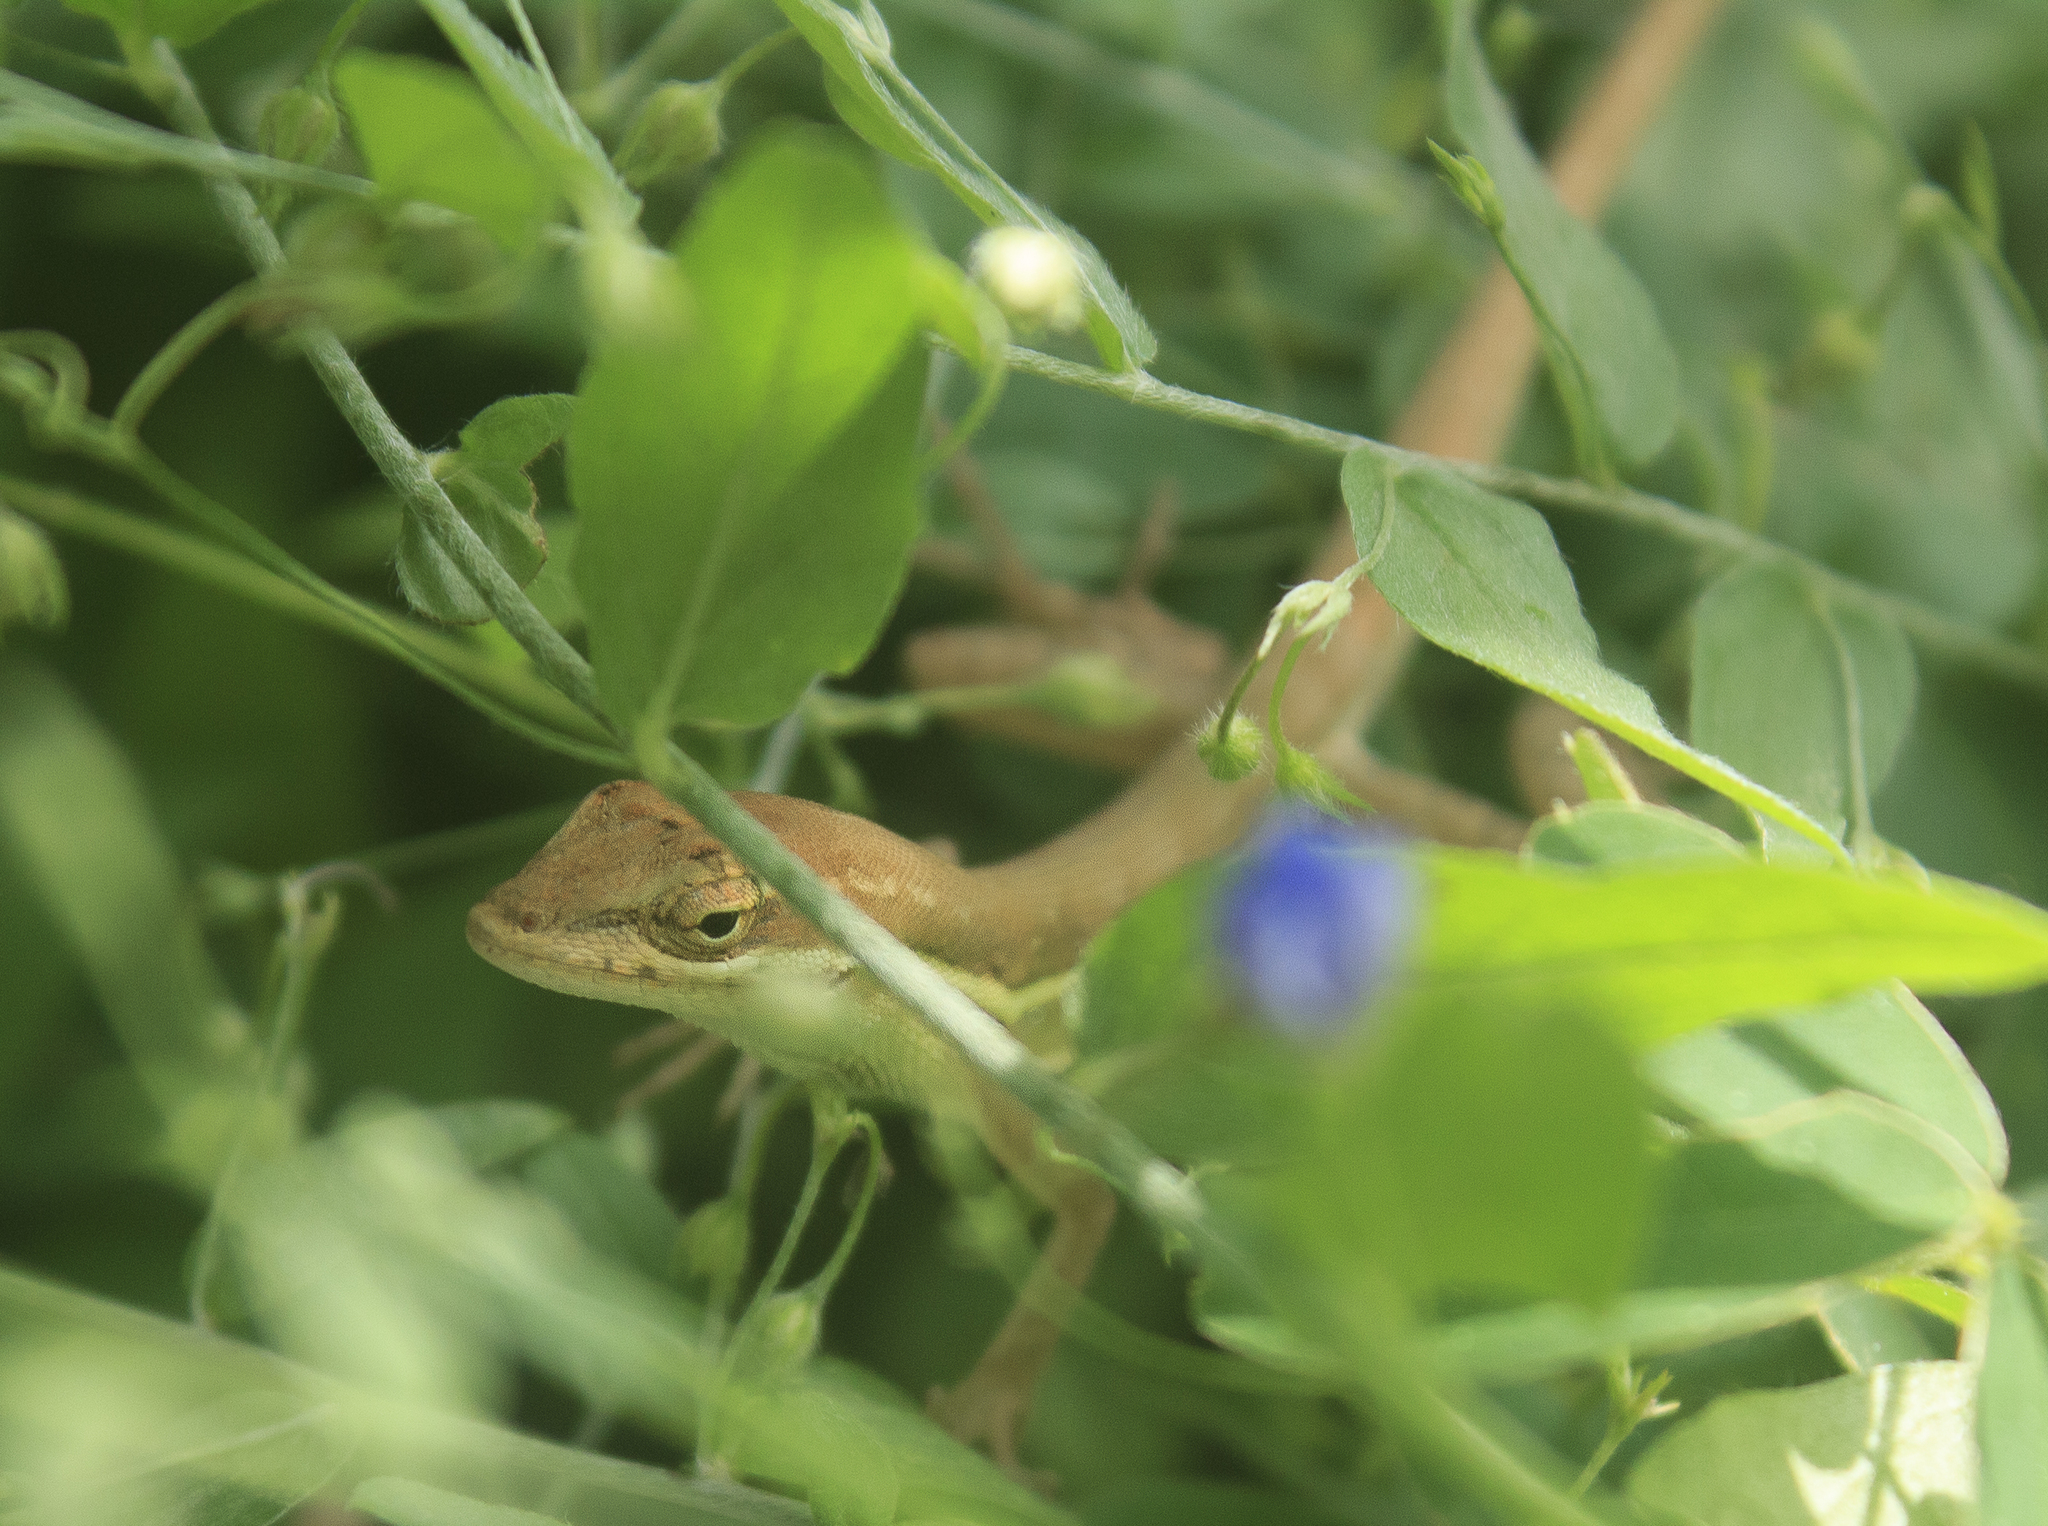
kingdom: Animalia
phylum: Chordata
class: Squamata
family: Dactyloidae
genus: Anolis
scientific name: Anolis auratus
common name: Grass anole
